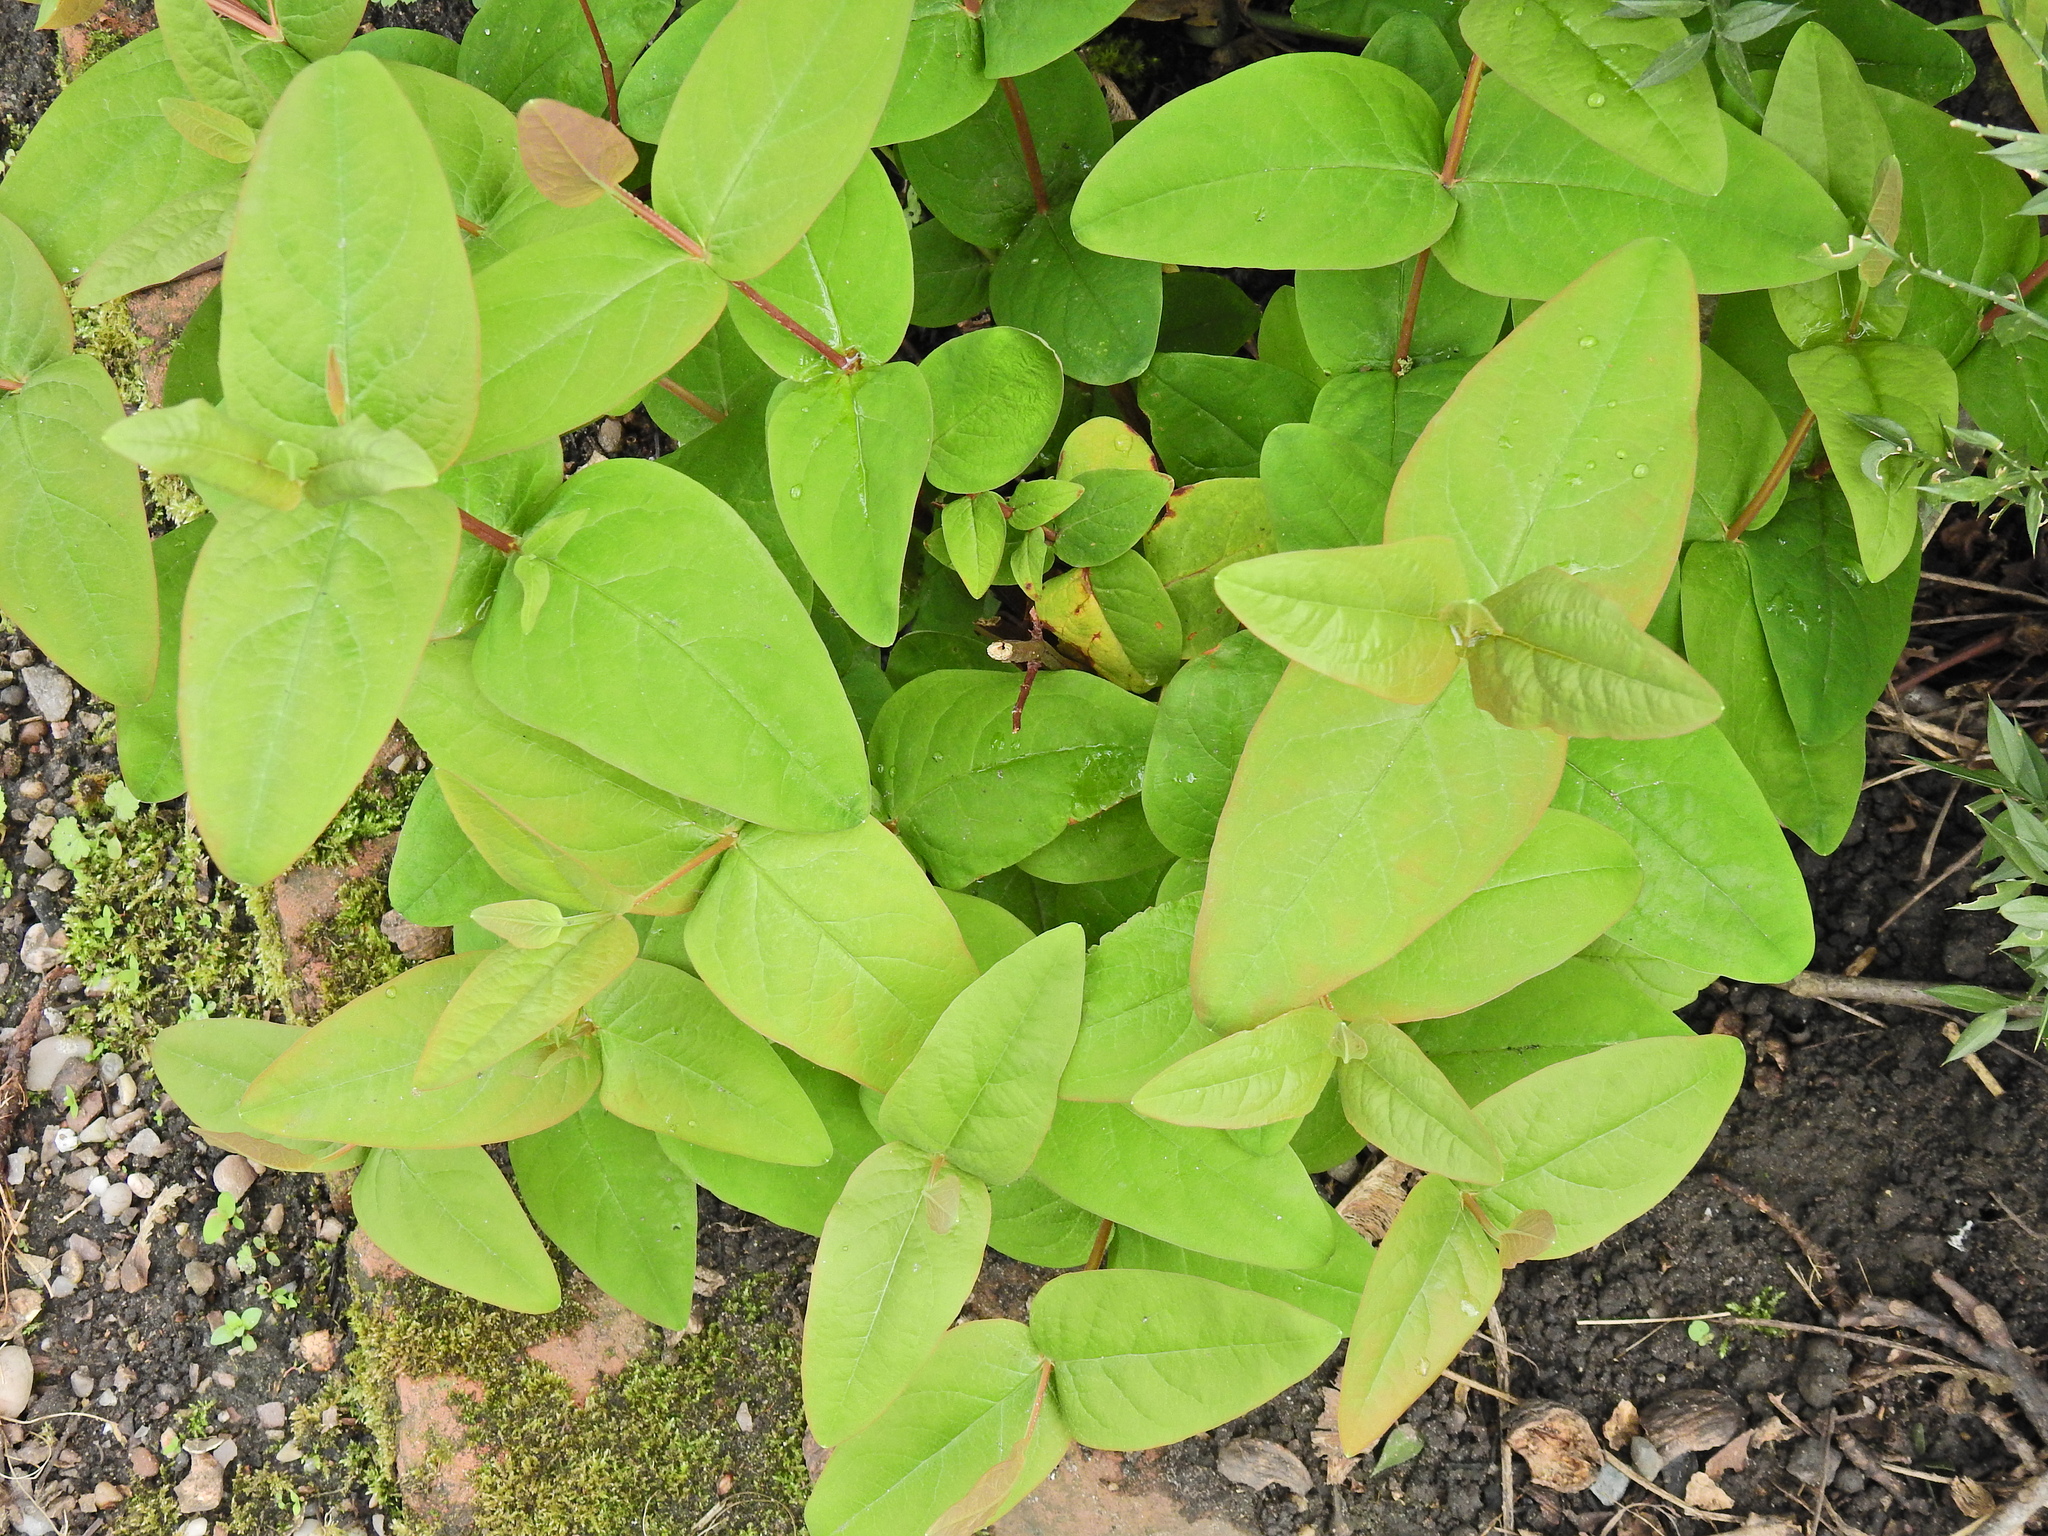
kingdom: Plantae
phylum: Tracheophyta
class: Magnoliopsida
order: Malpighiales
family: Hypericaceae
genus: Hypericum
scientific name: Hypericum androsaemum
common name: Sweet-amber
